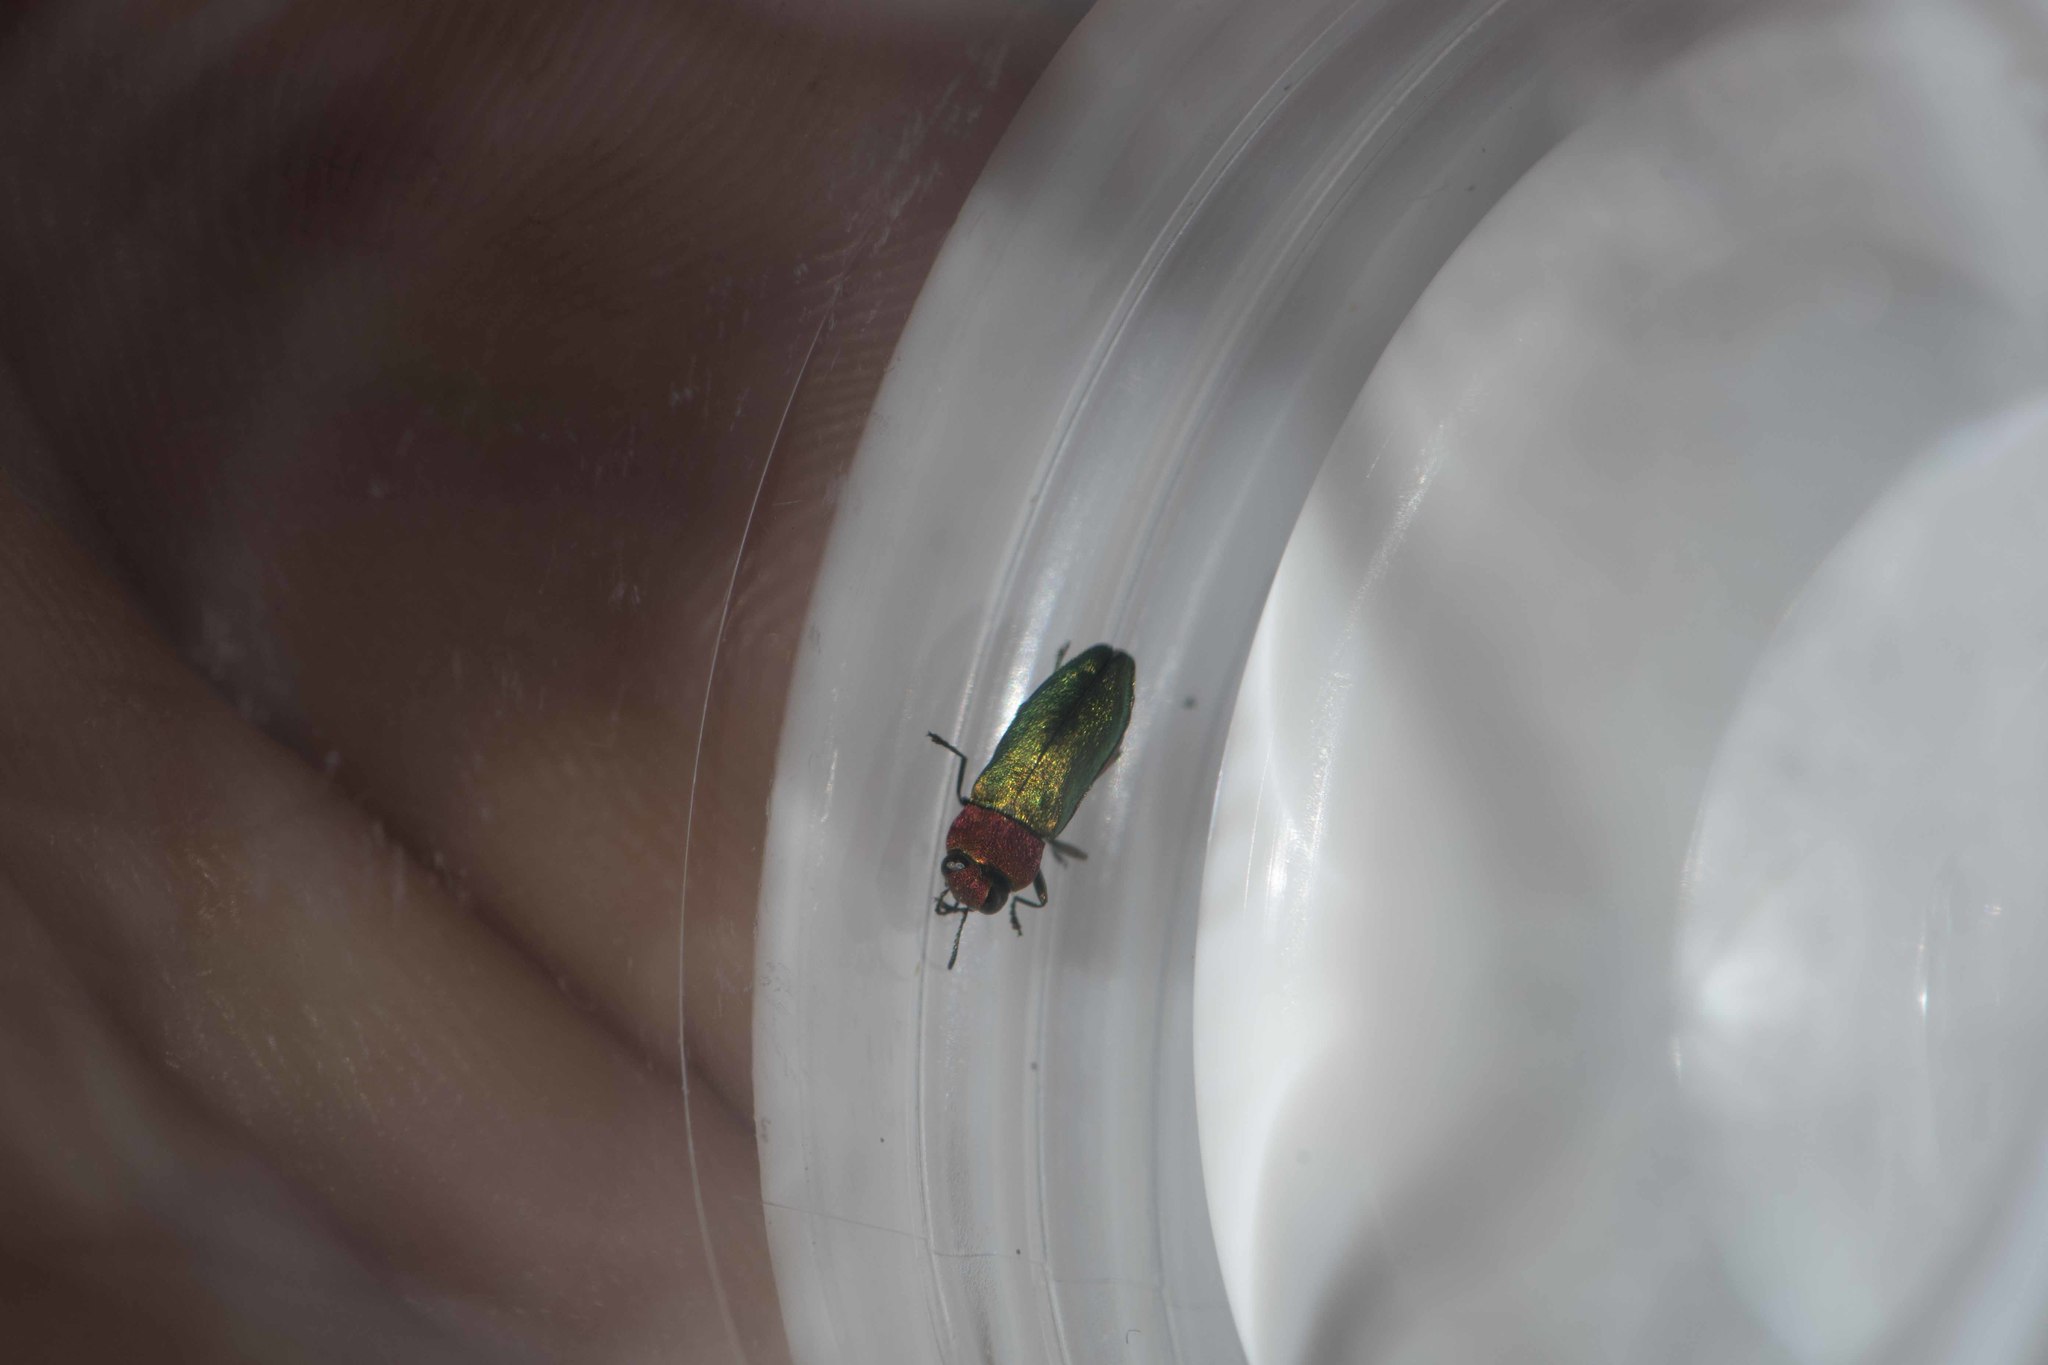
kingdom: Animalia
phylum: Arthropoda
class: Insecta
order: Coleoptera
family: Buprestidae
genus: Anthaxia
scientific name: Anthaxia nitidula
